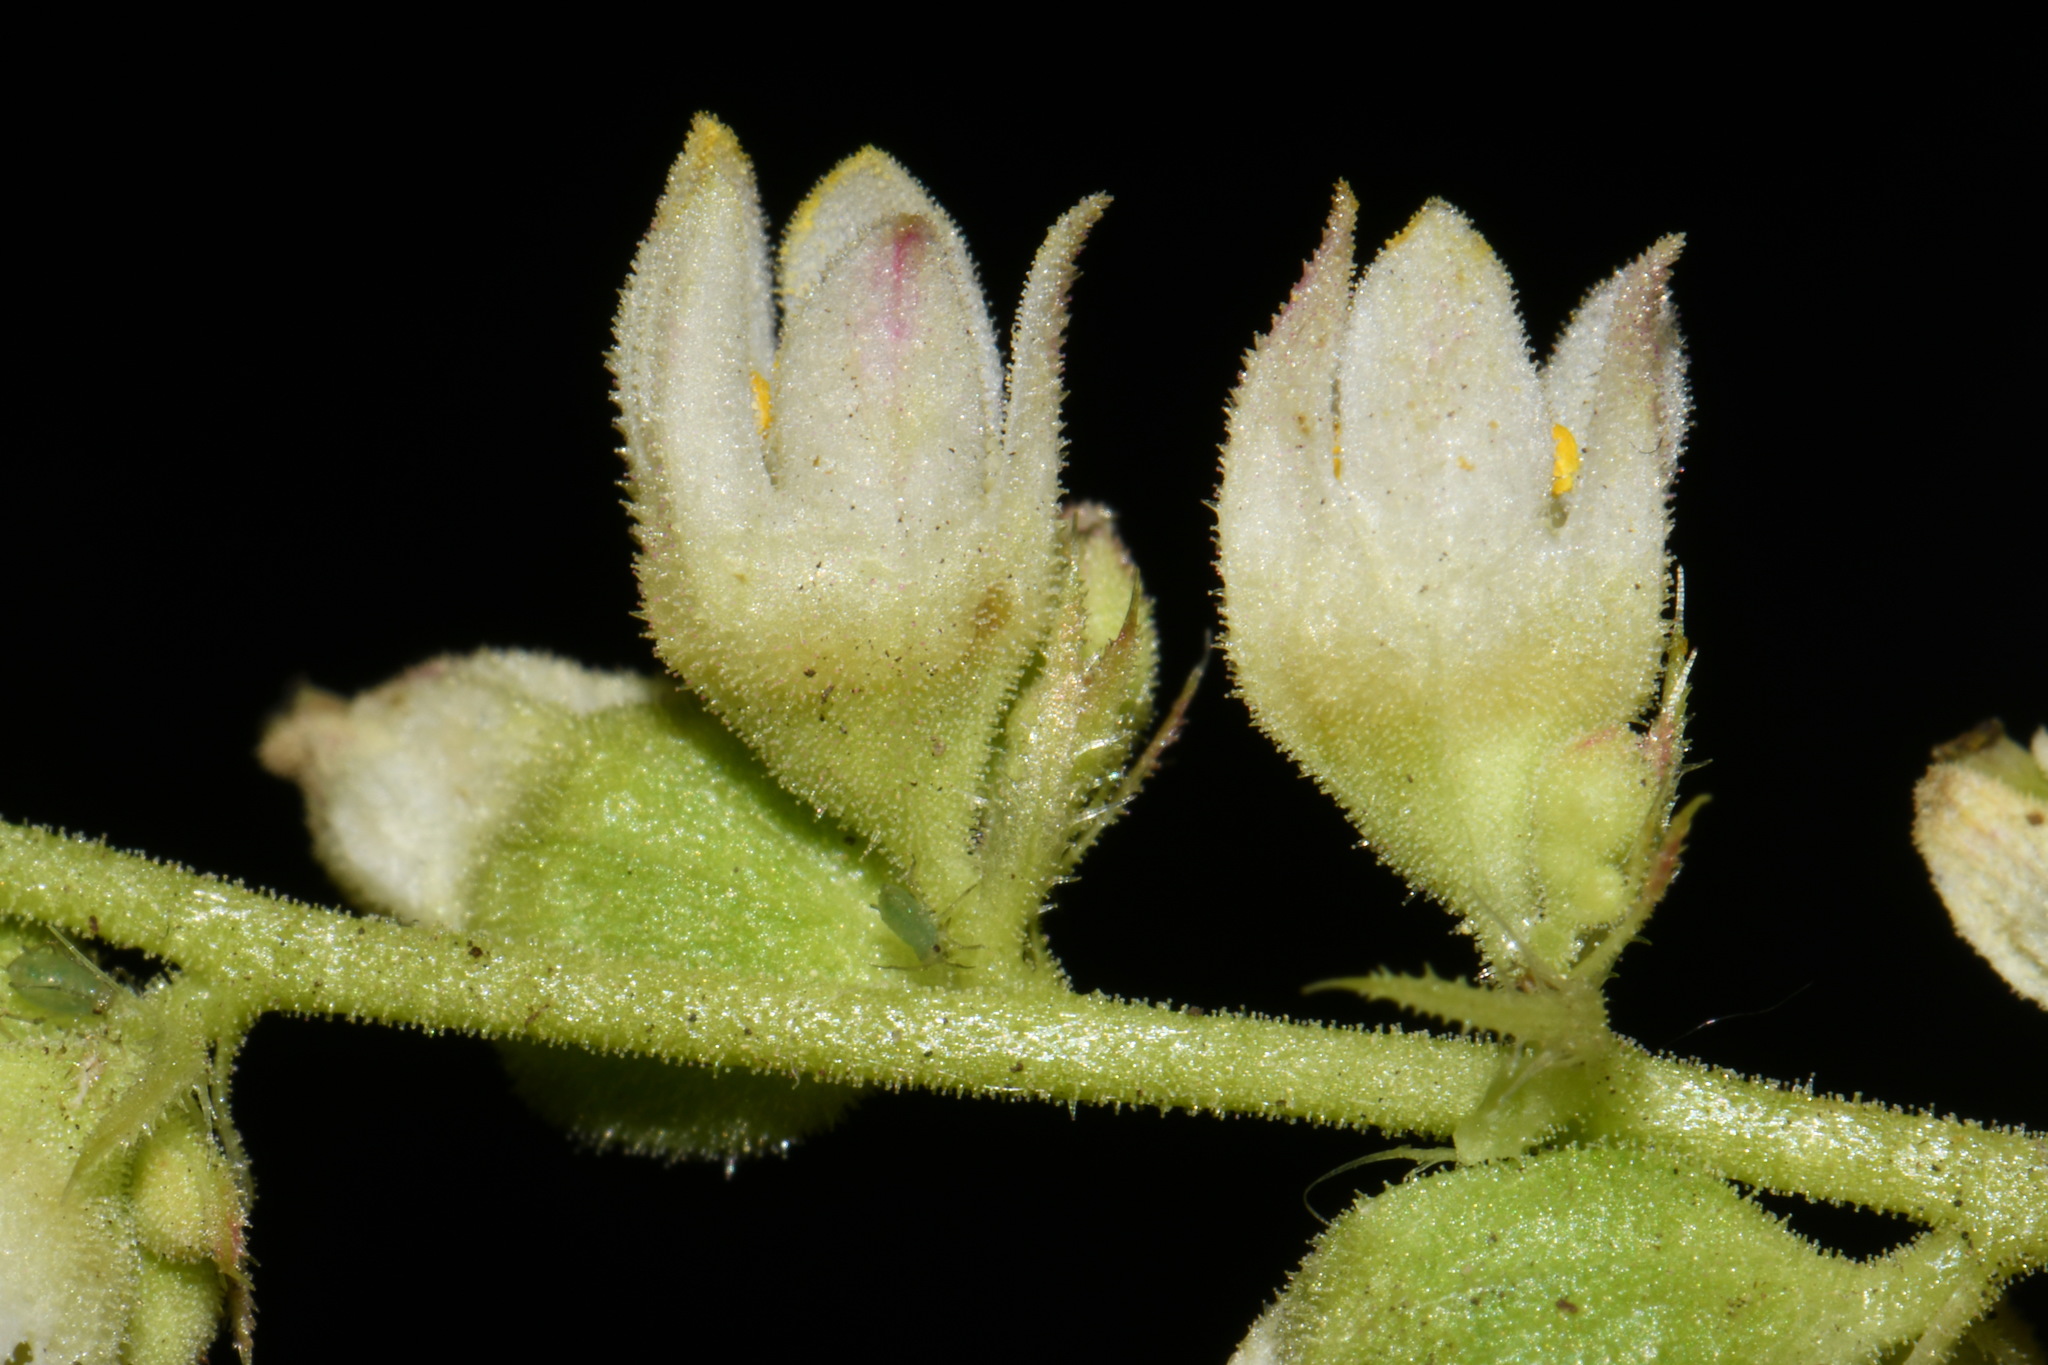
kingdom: Plantae
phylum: Tracheophyta
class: Magnoliopsida
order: Saxifragales
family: Saxifragaceae
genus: Heuchera
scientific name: Heuchera cylindrica
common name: Mat alumroot
